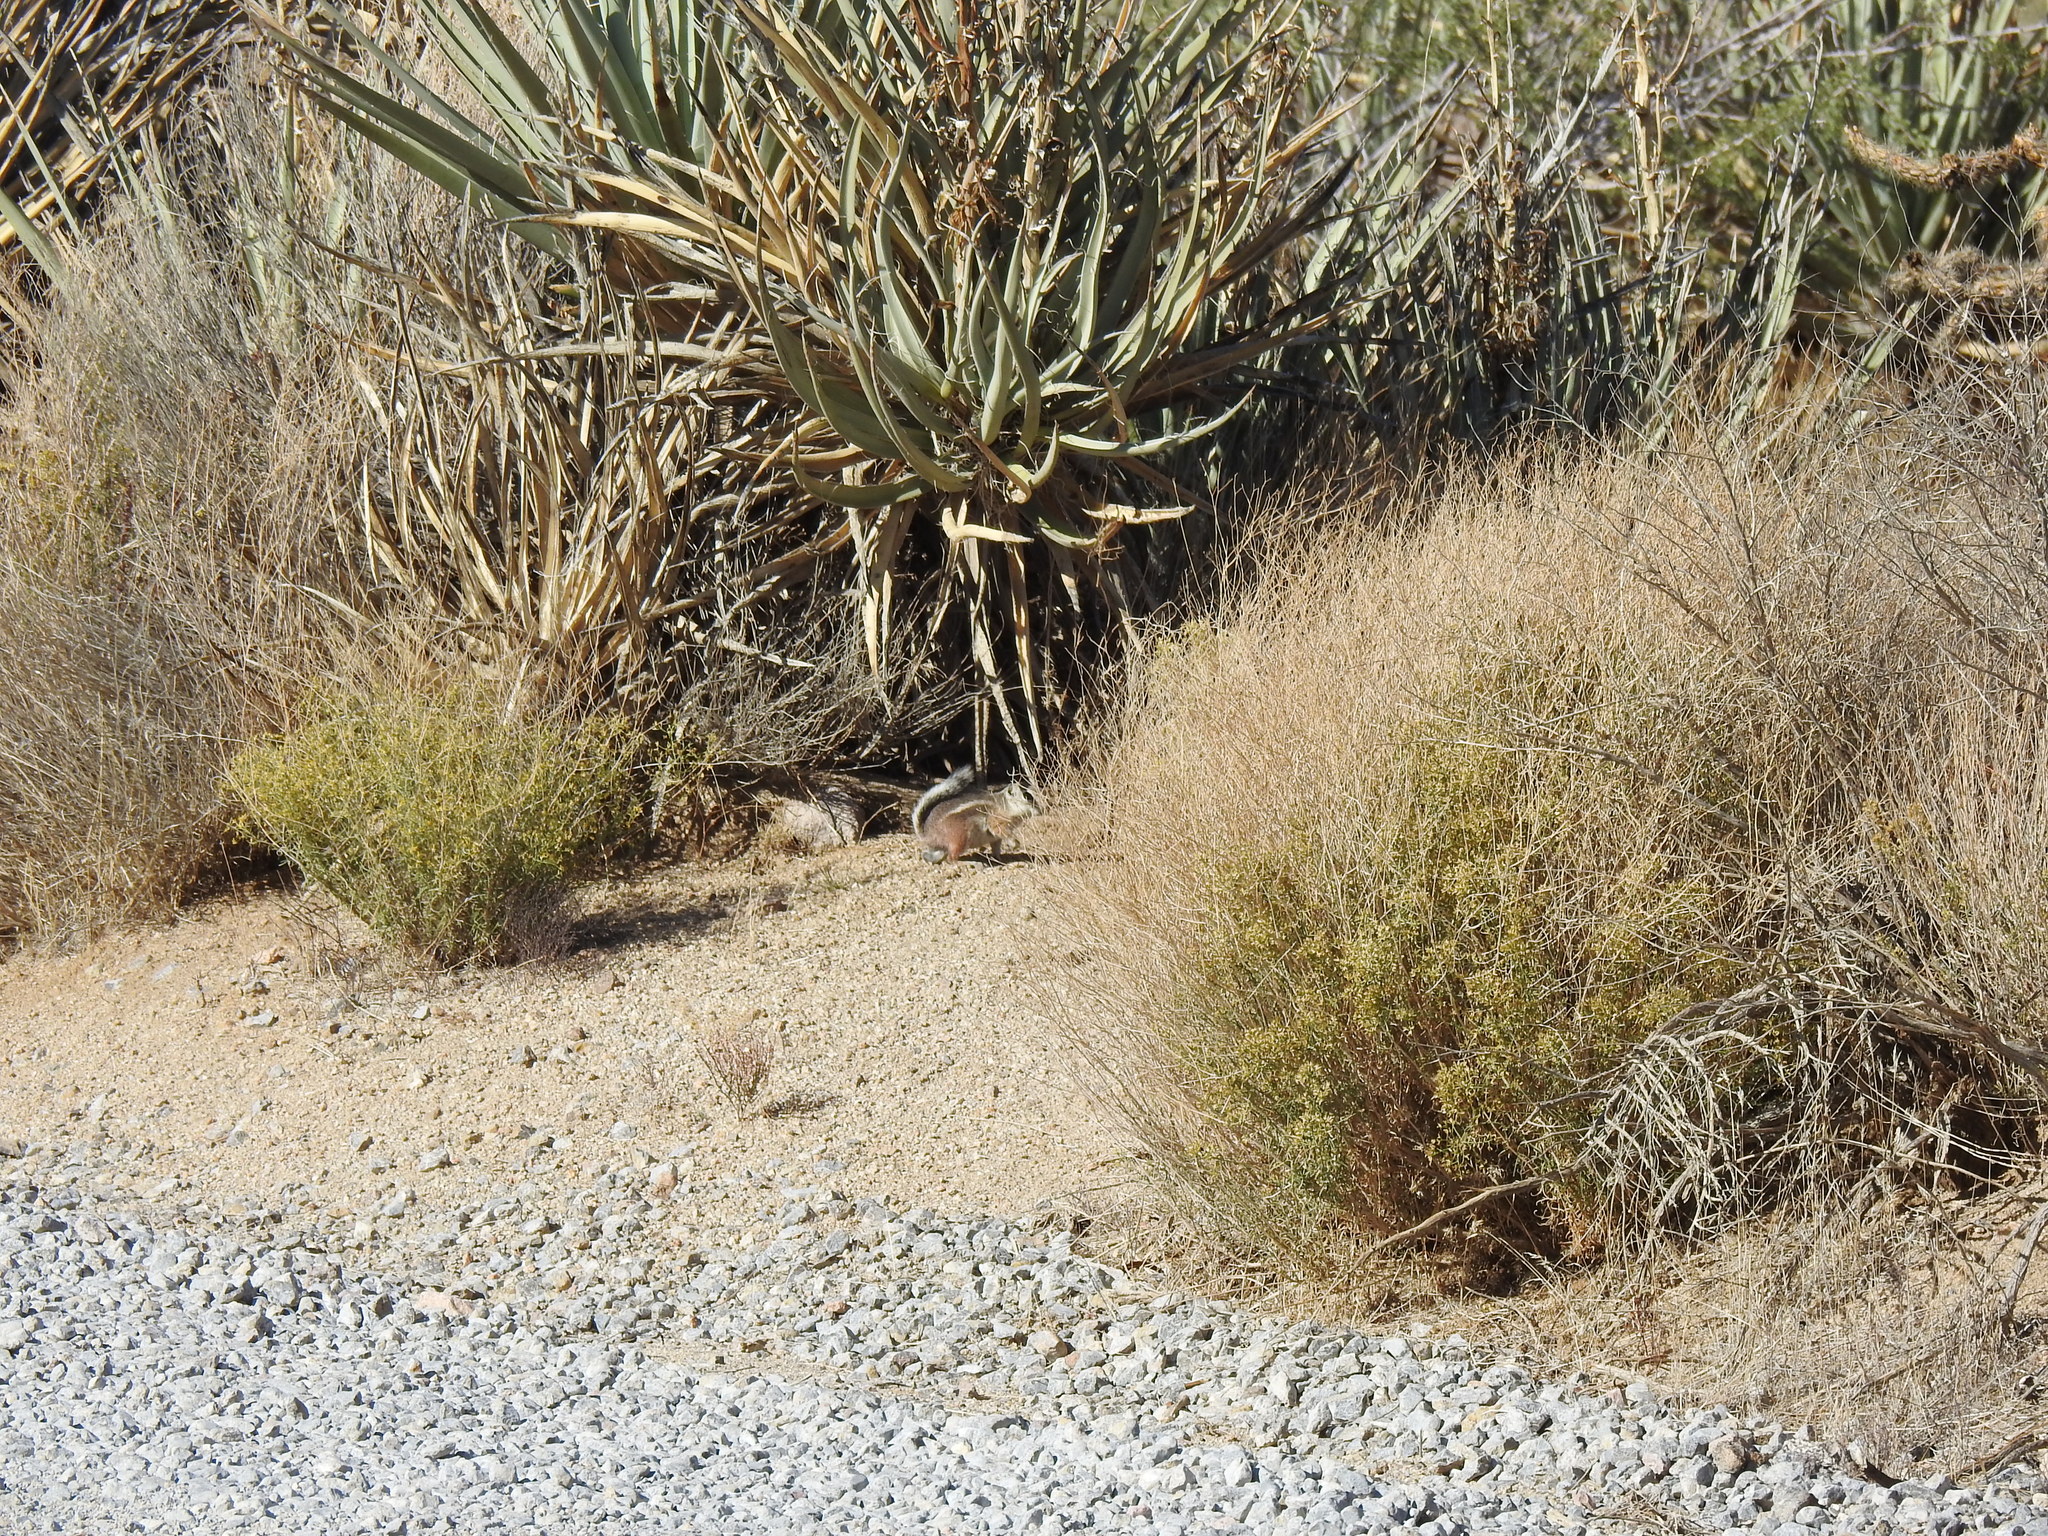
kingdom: Animalia
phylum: Chordata
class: Mammalia
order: Rodentia
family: Sciuridae
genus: Ammospermophilus
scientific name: Ammospermophilus leucurus
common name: White-tailed antelope squirrel
